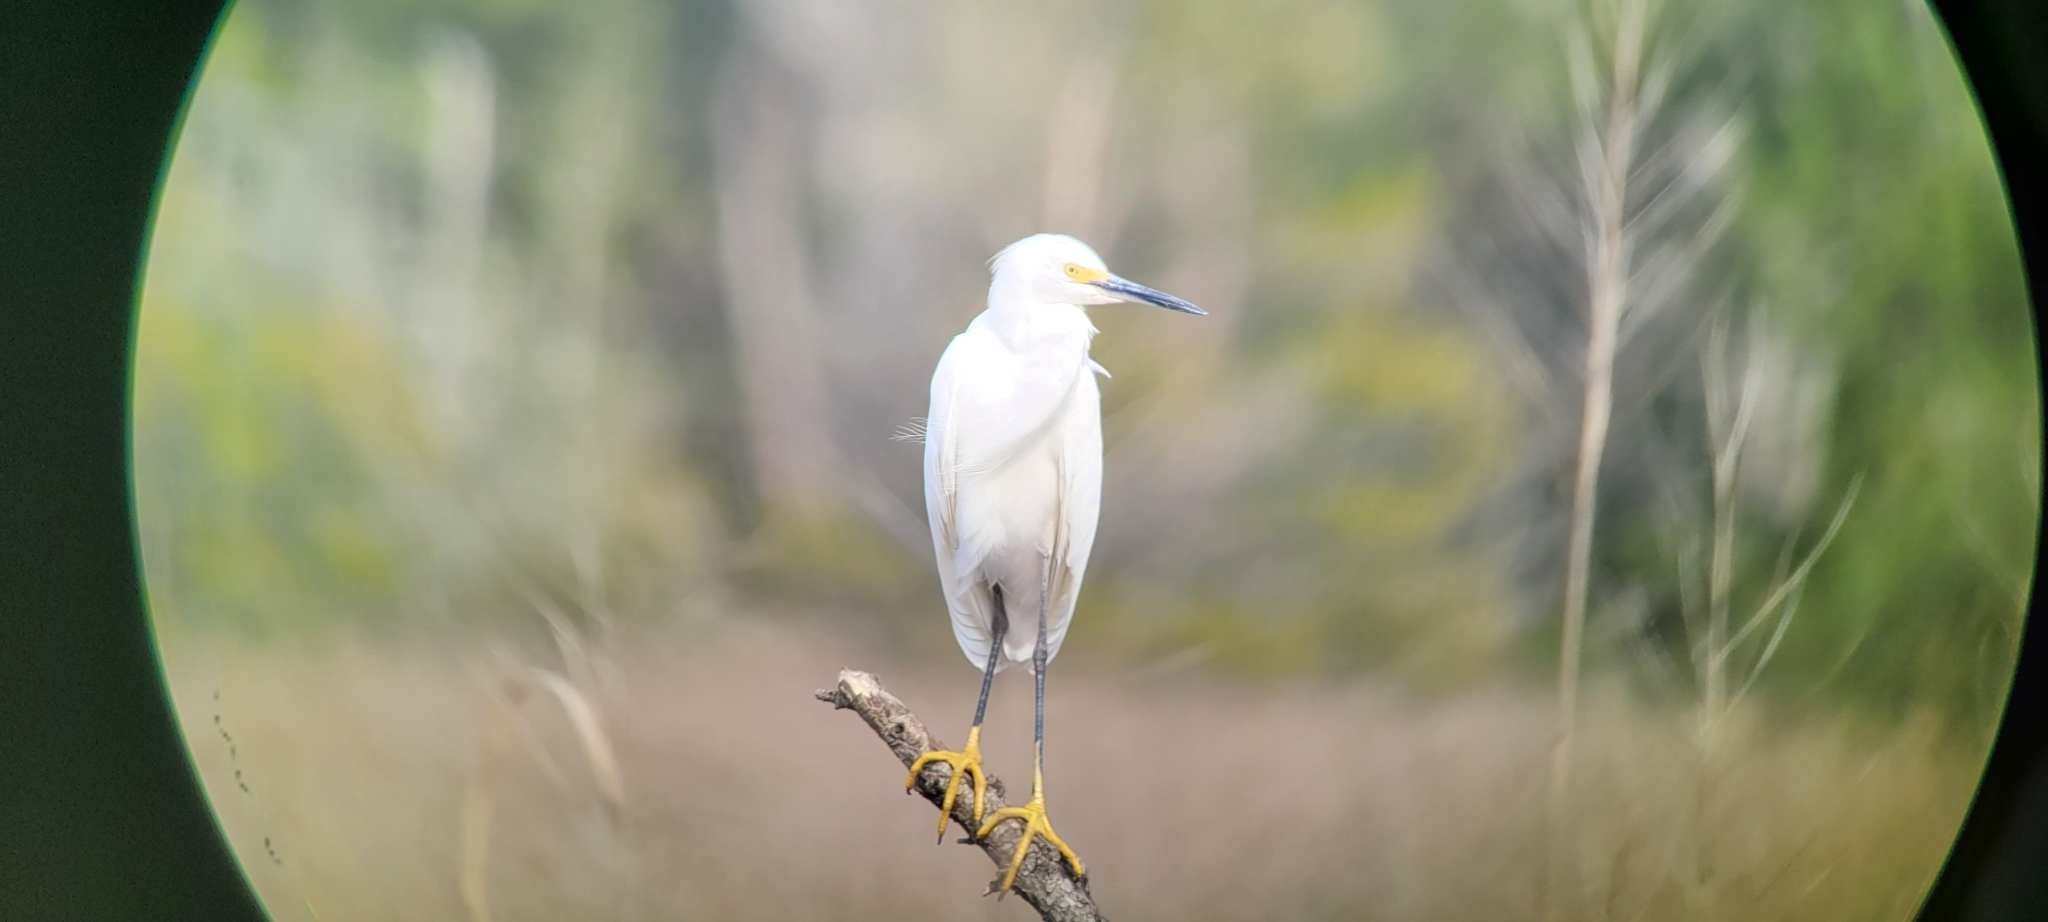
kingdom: Animalia
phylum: Chordata
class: Aves
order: Pelecaniformes
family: Ardeidae
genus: Egretta
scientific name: Egretta thula
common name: Snowy egret
